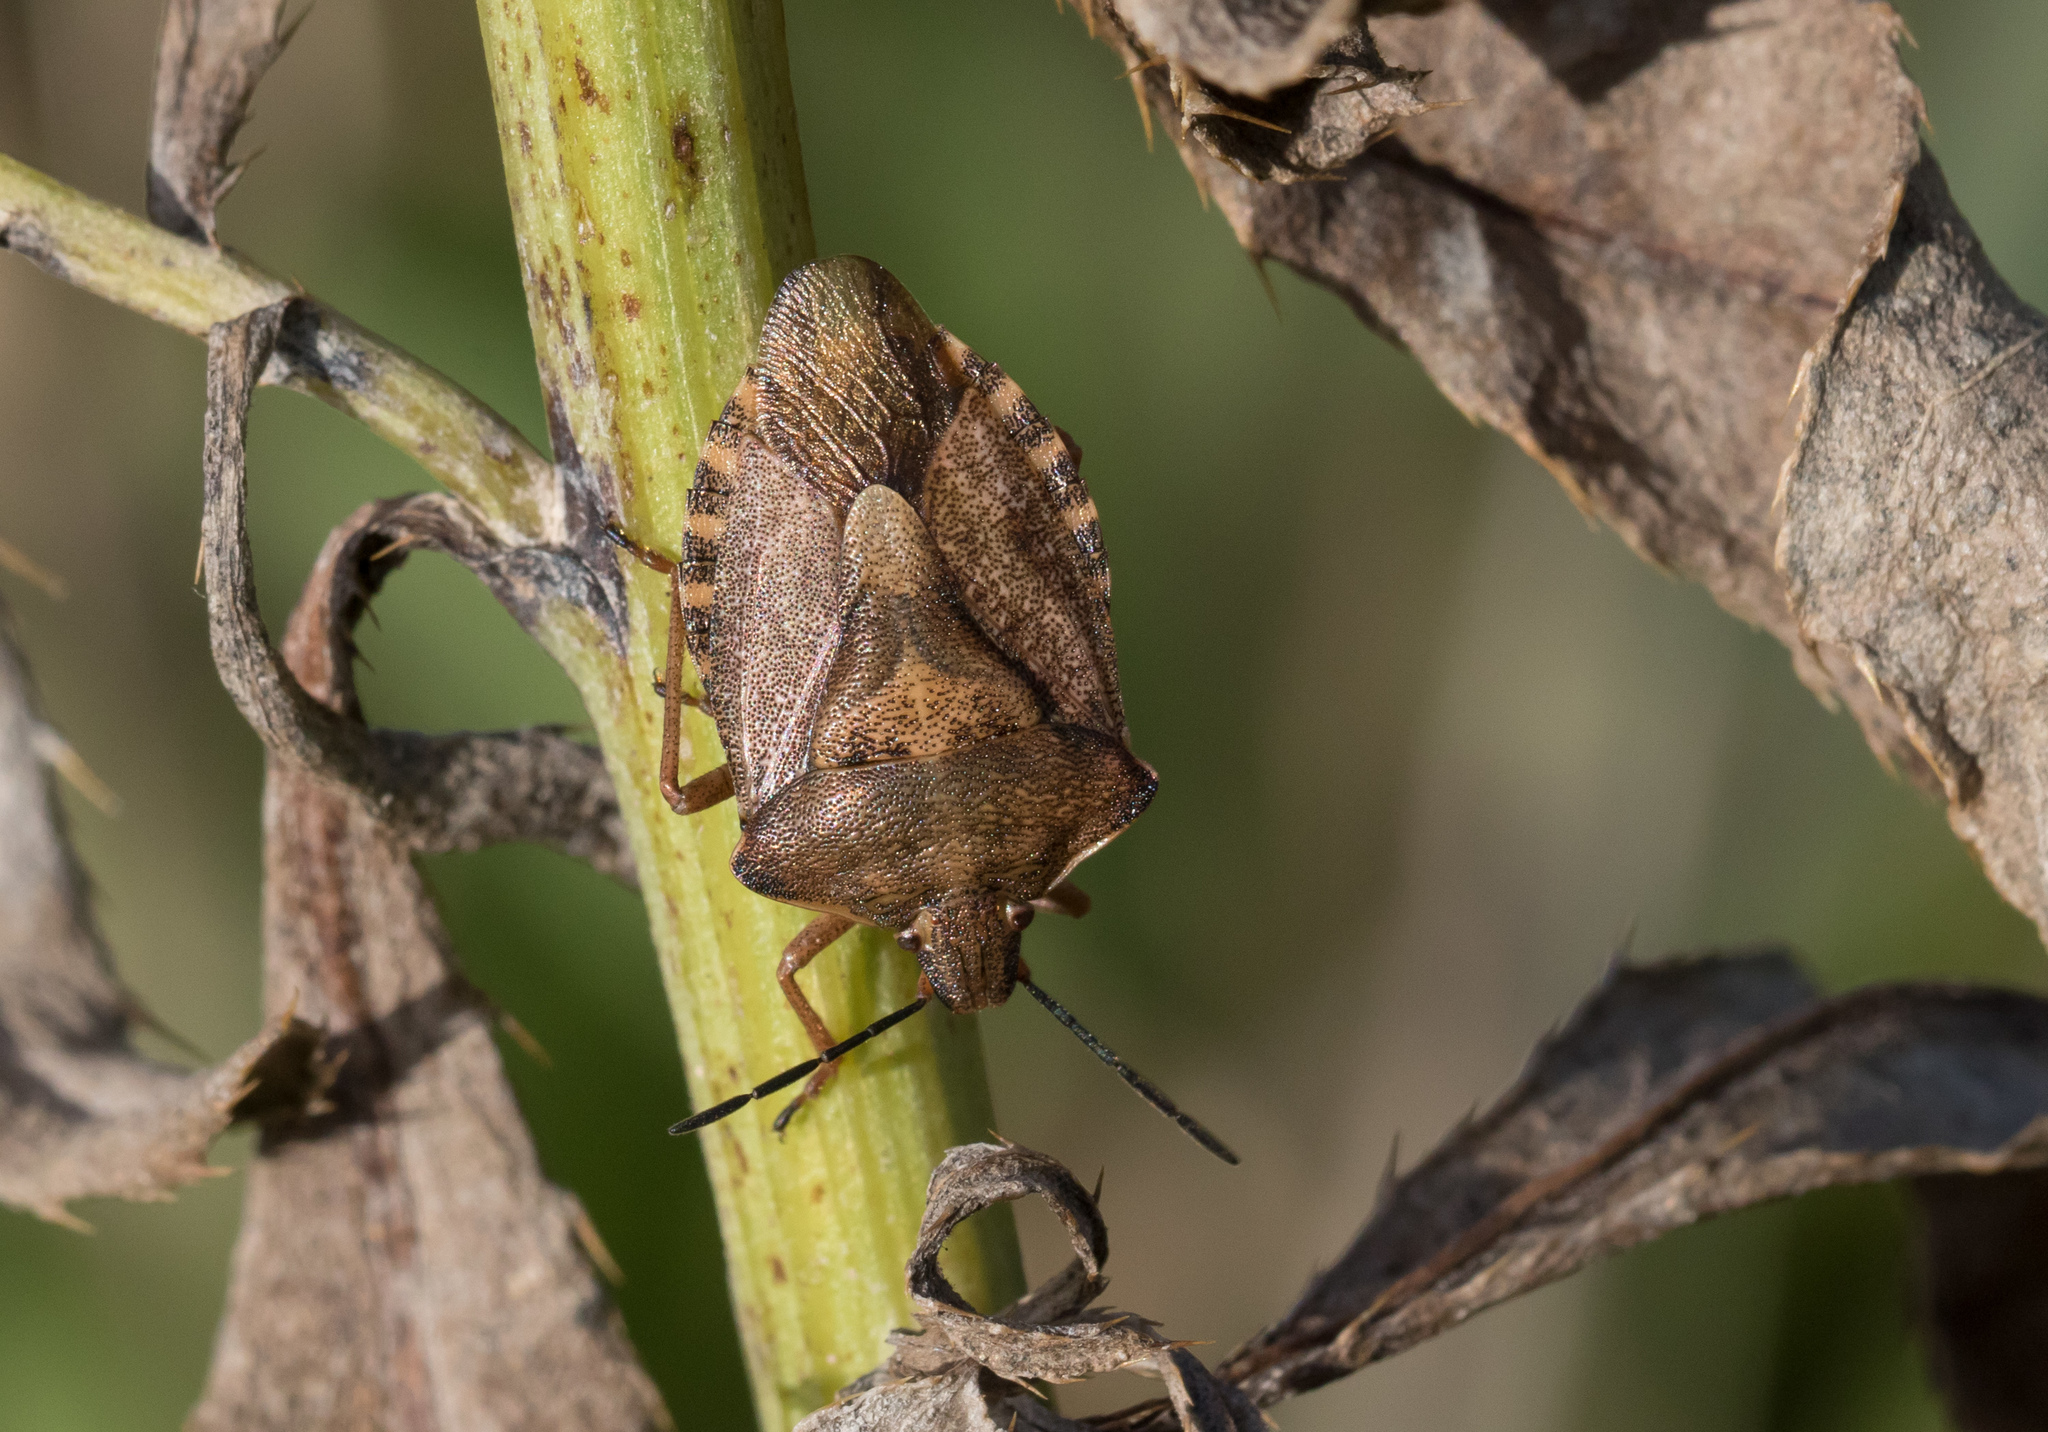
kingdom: Animalia
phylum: Arthropoda
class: Insecta
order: Hemiptera
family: Pentatomidae
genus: Carpocoris
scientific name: Carpocoris purpureipennis
